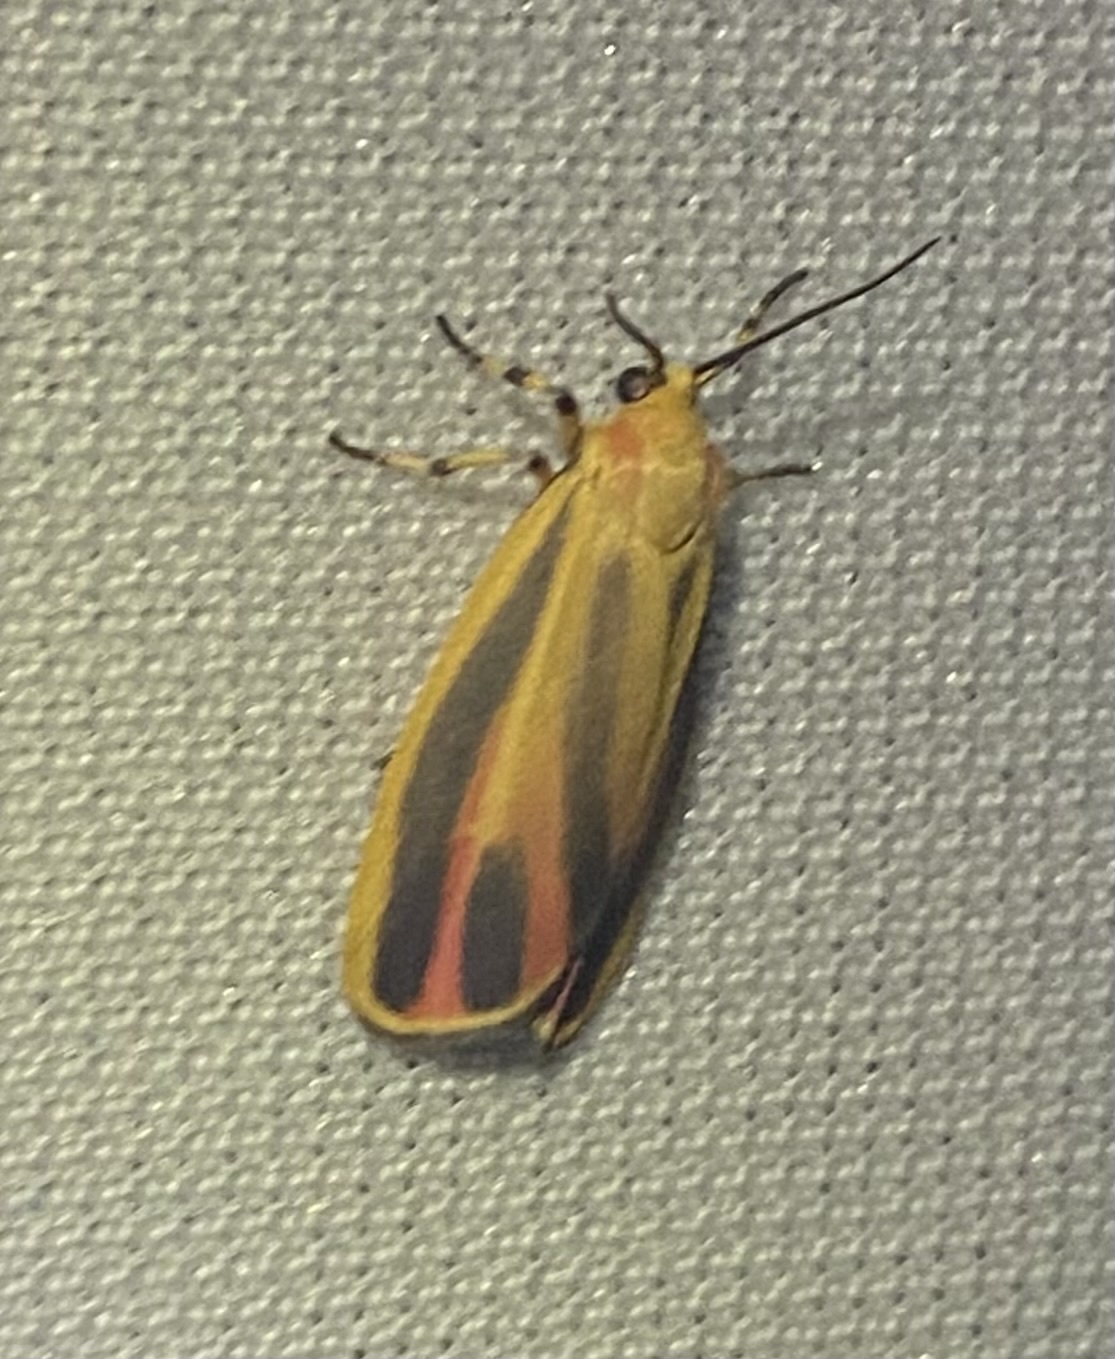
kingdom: Animalia
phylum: Arthropoda
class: Insecta
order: Lepidoptera
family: Erebidae
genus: Hypoprepia
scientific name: Hypoprepia fucosa
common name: Painted lichen moth
